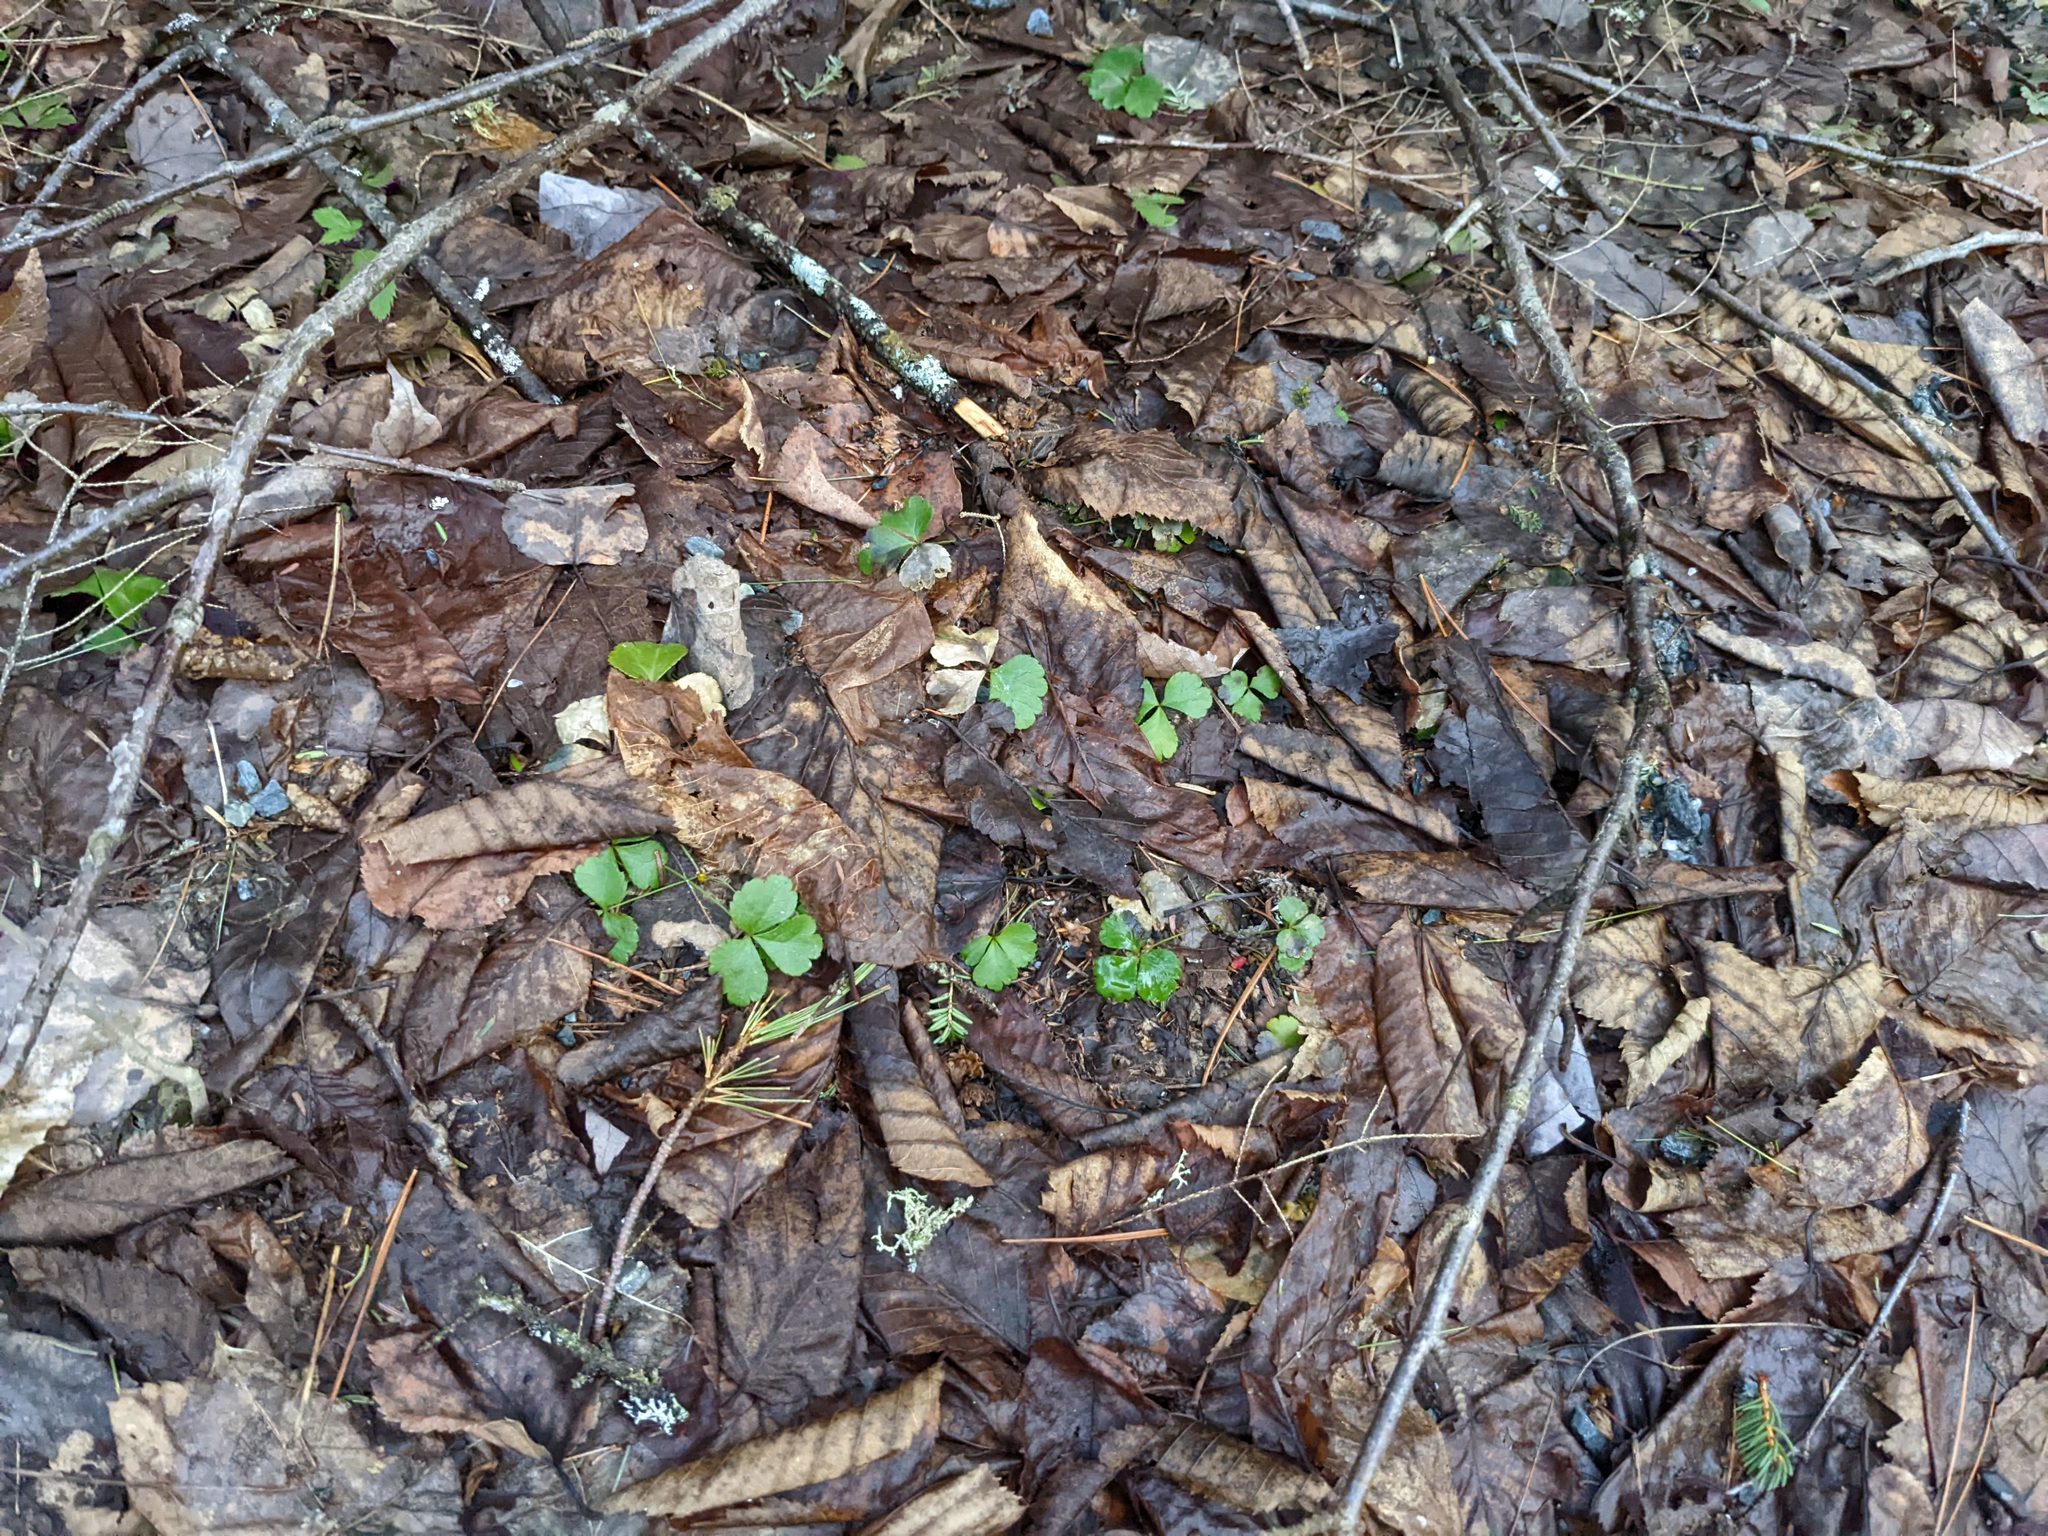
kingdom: Plantae
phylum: Tracheophyta
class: Magnoliopsida
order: Ranunculales
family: Ranunculaceae
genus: Coptis
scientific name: Coptis trifolia
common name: Canker-root
